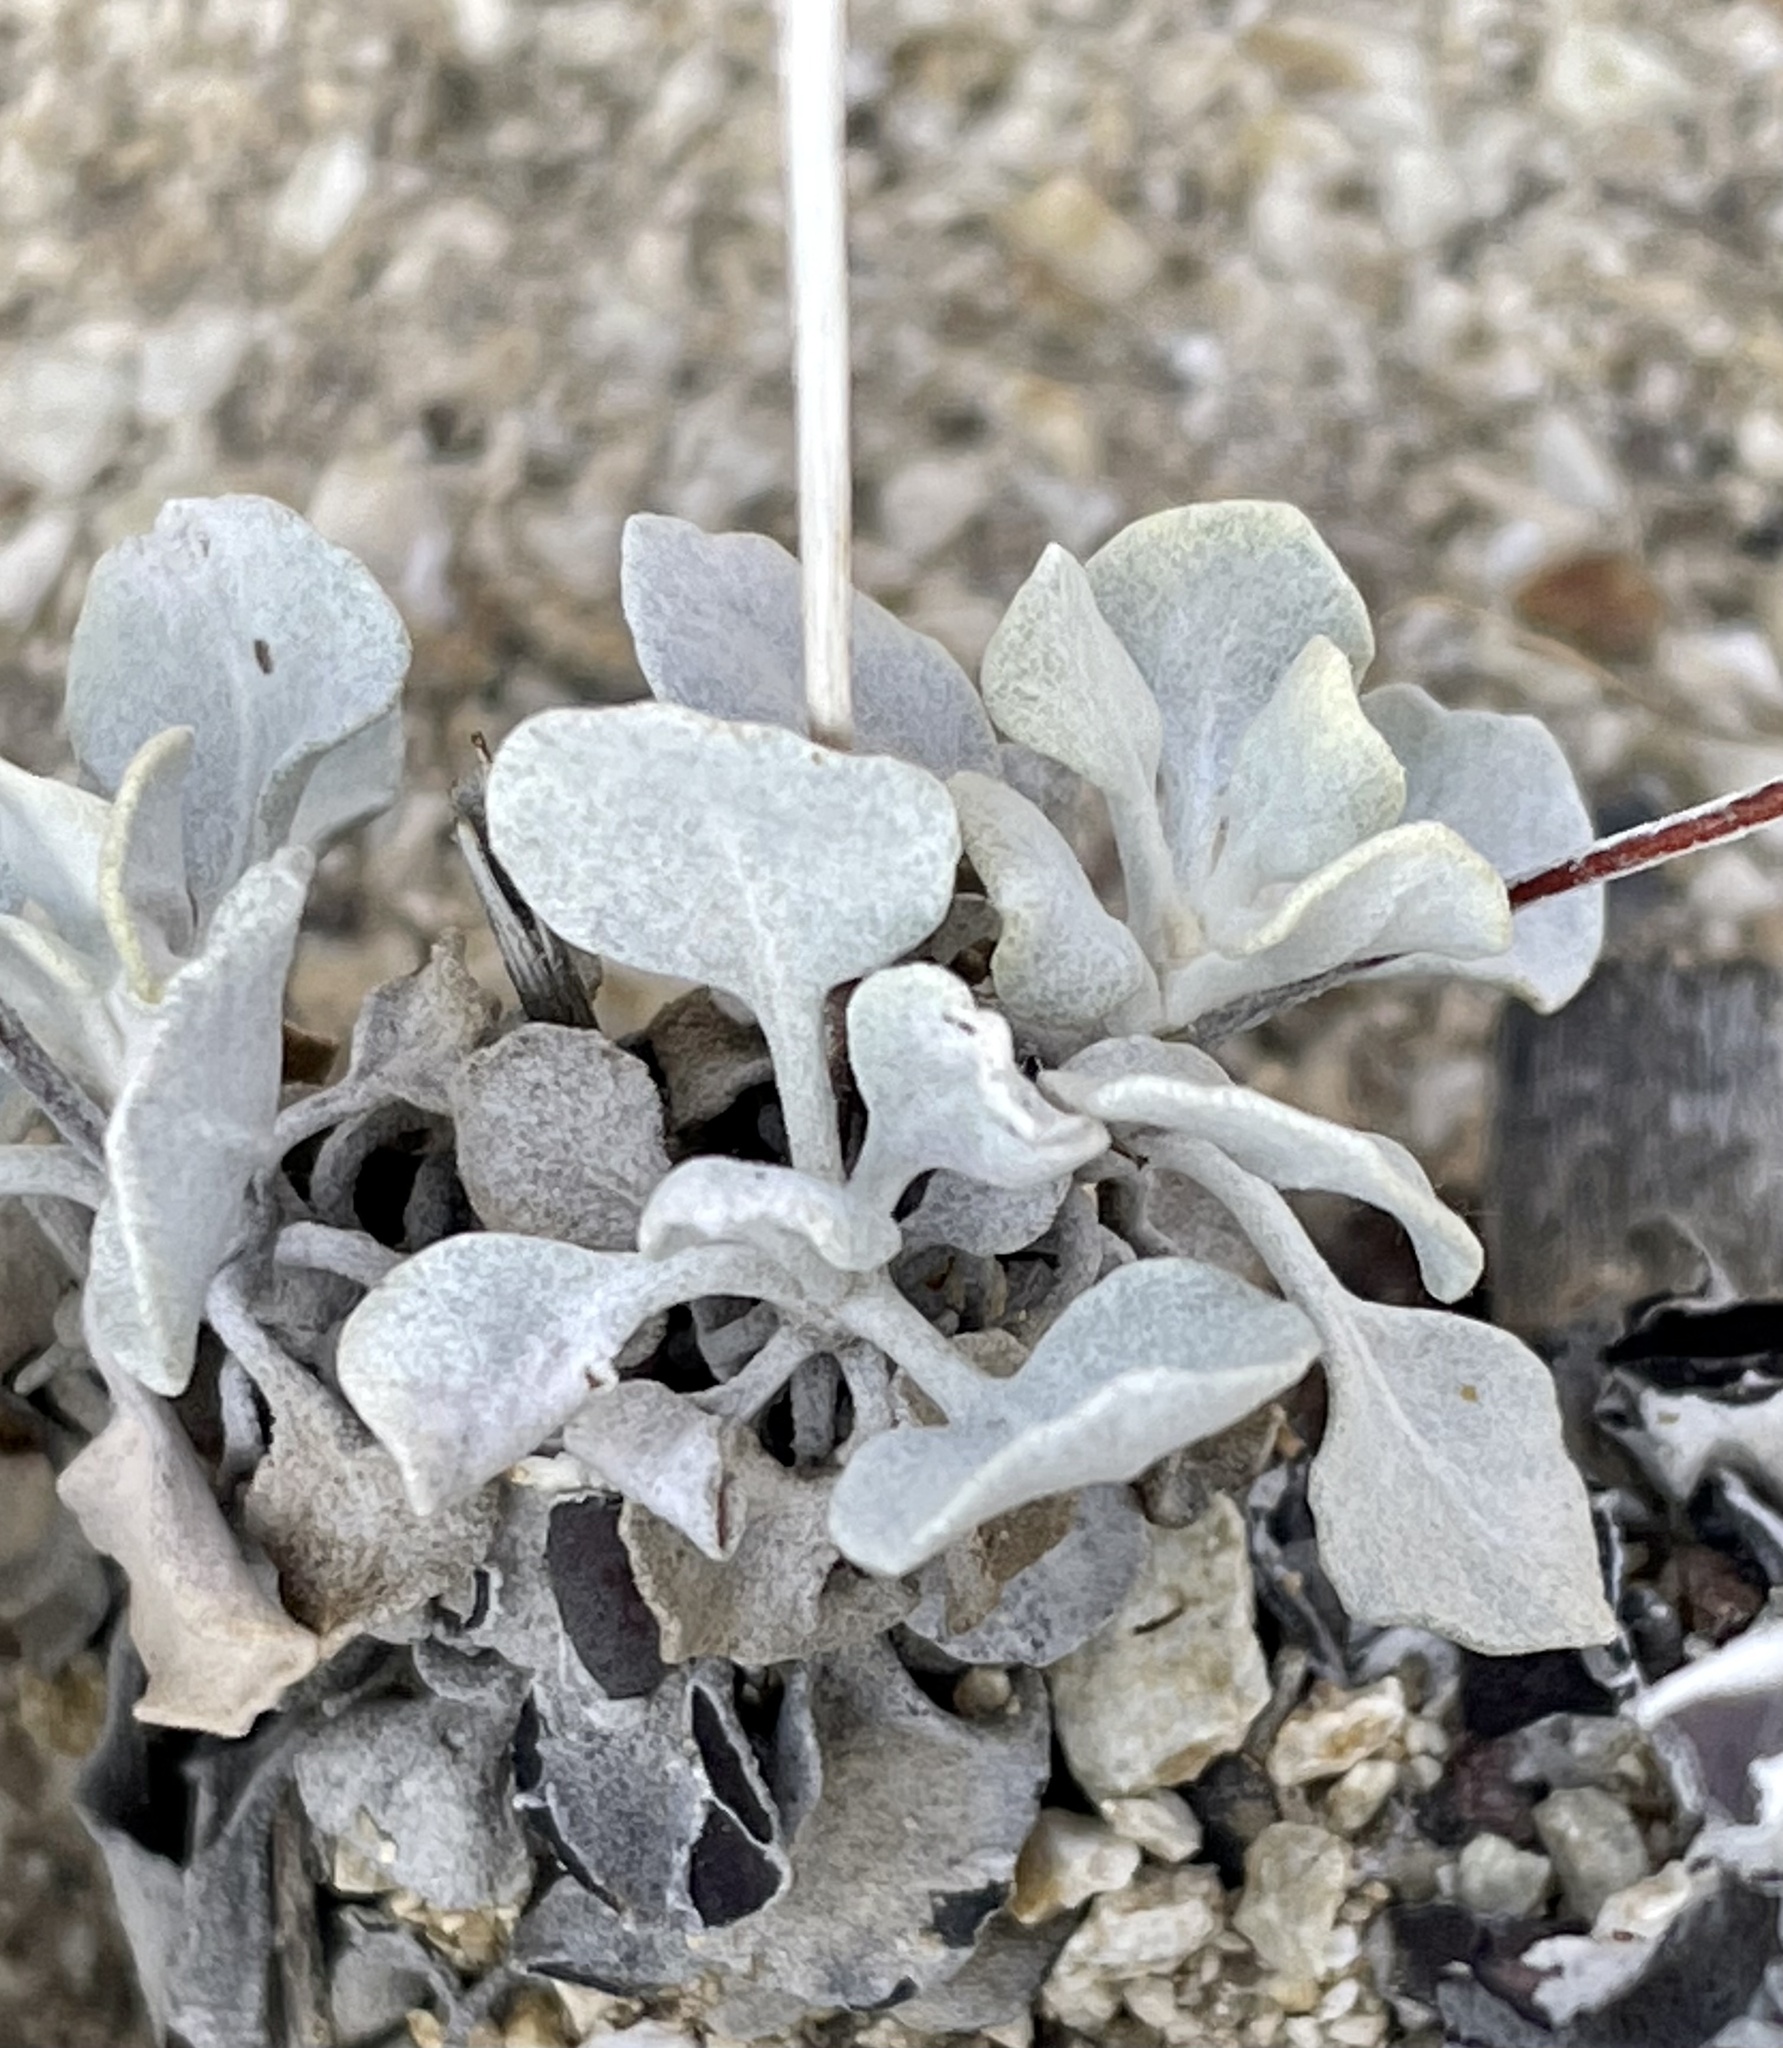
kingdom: Plantae
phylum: Tracheophyta
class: Magnoliopsida
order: Caryophyllales
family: Polygonaceae
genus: Eriogonum
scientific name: Eriogonum saxatile
